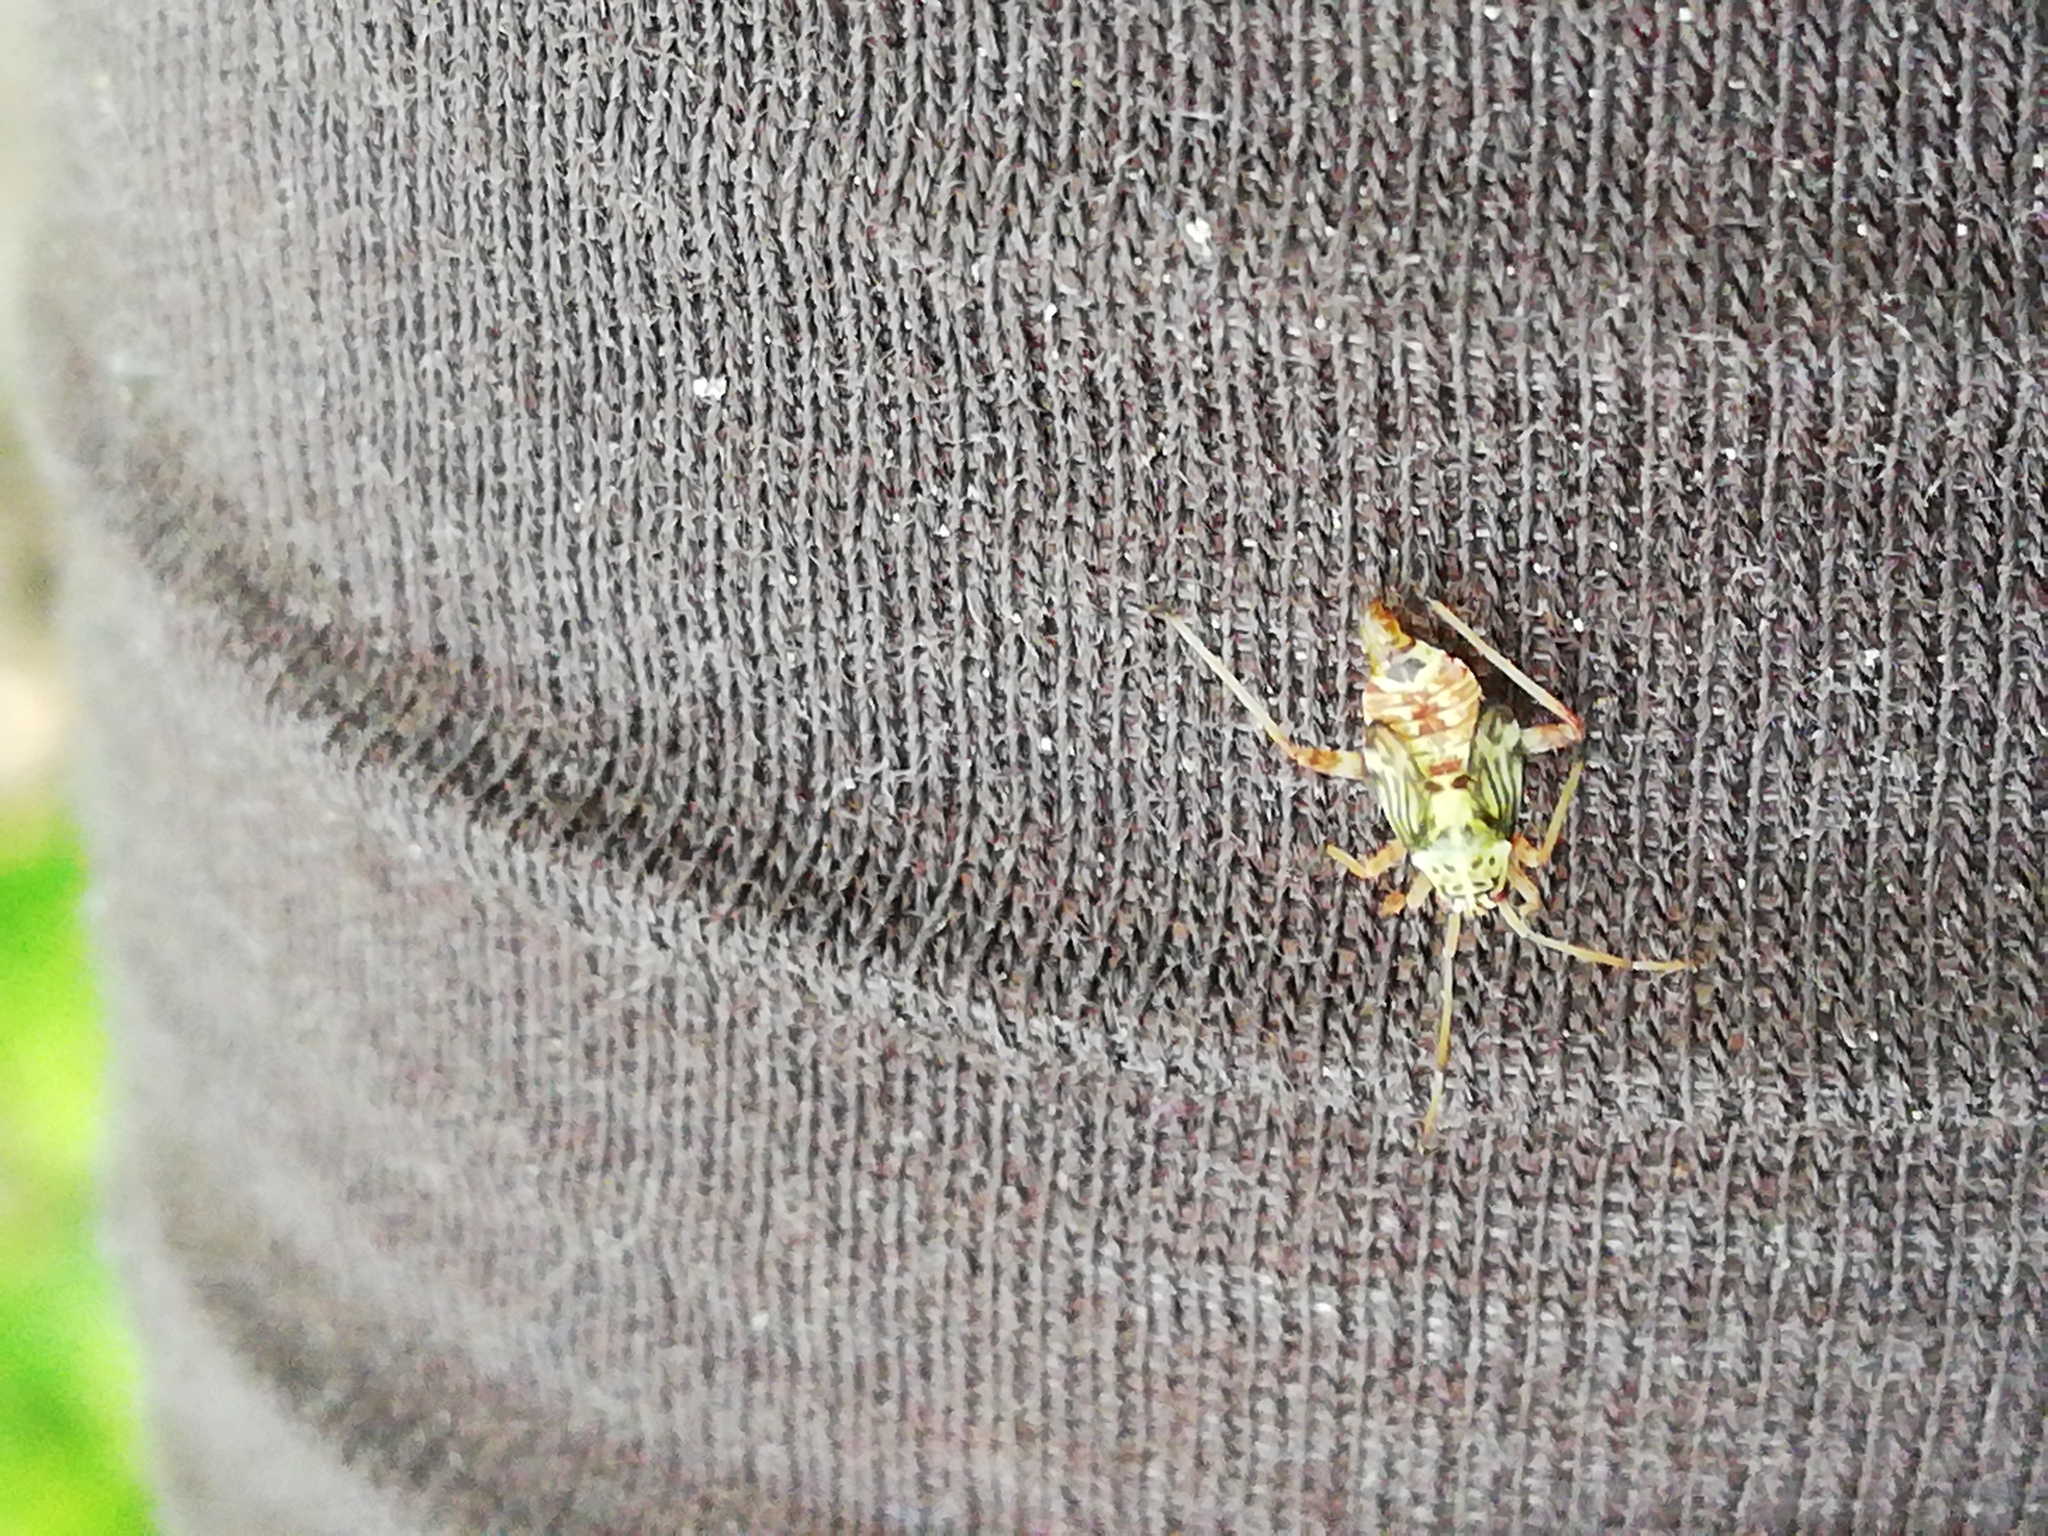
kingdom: Animalia
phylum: Arthropoda
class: Insecta
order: Hemiptera
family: Miridae
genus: Rhabdomiris
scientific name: Rhabdomiris striatellus
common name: Plant bug
